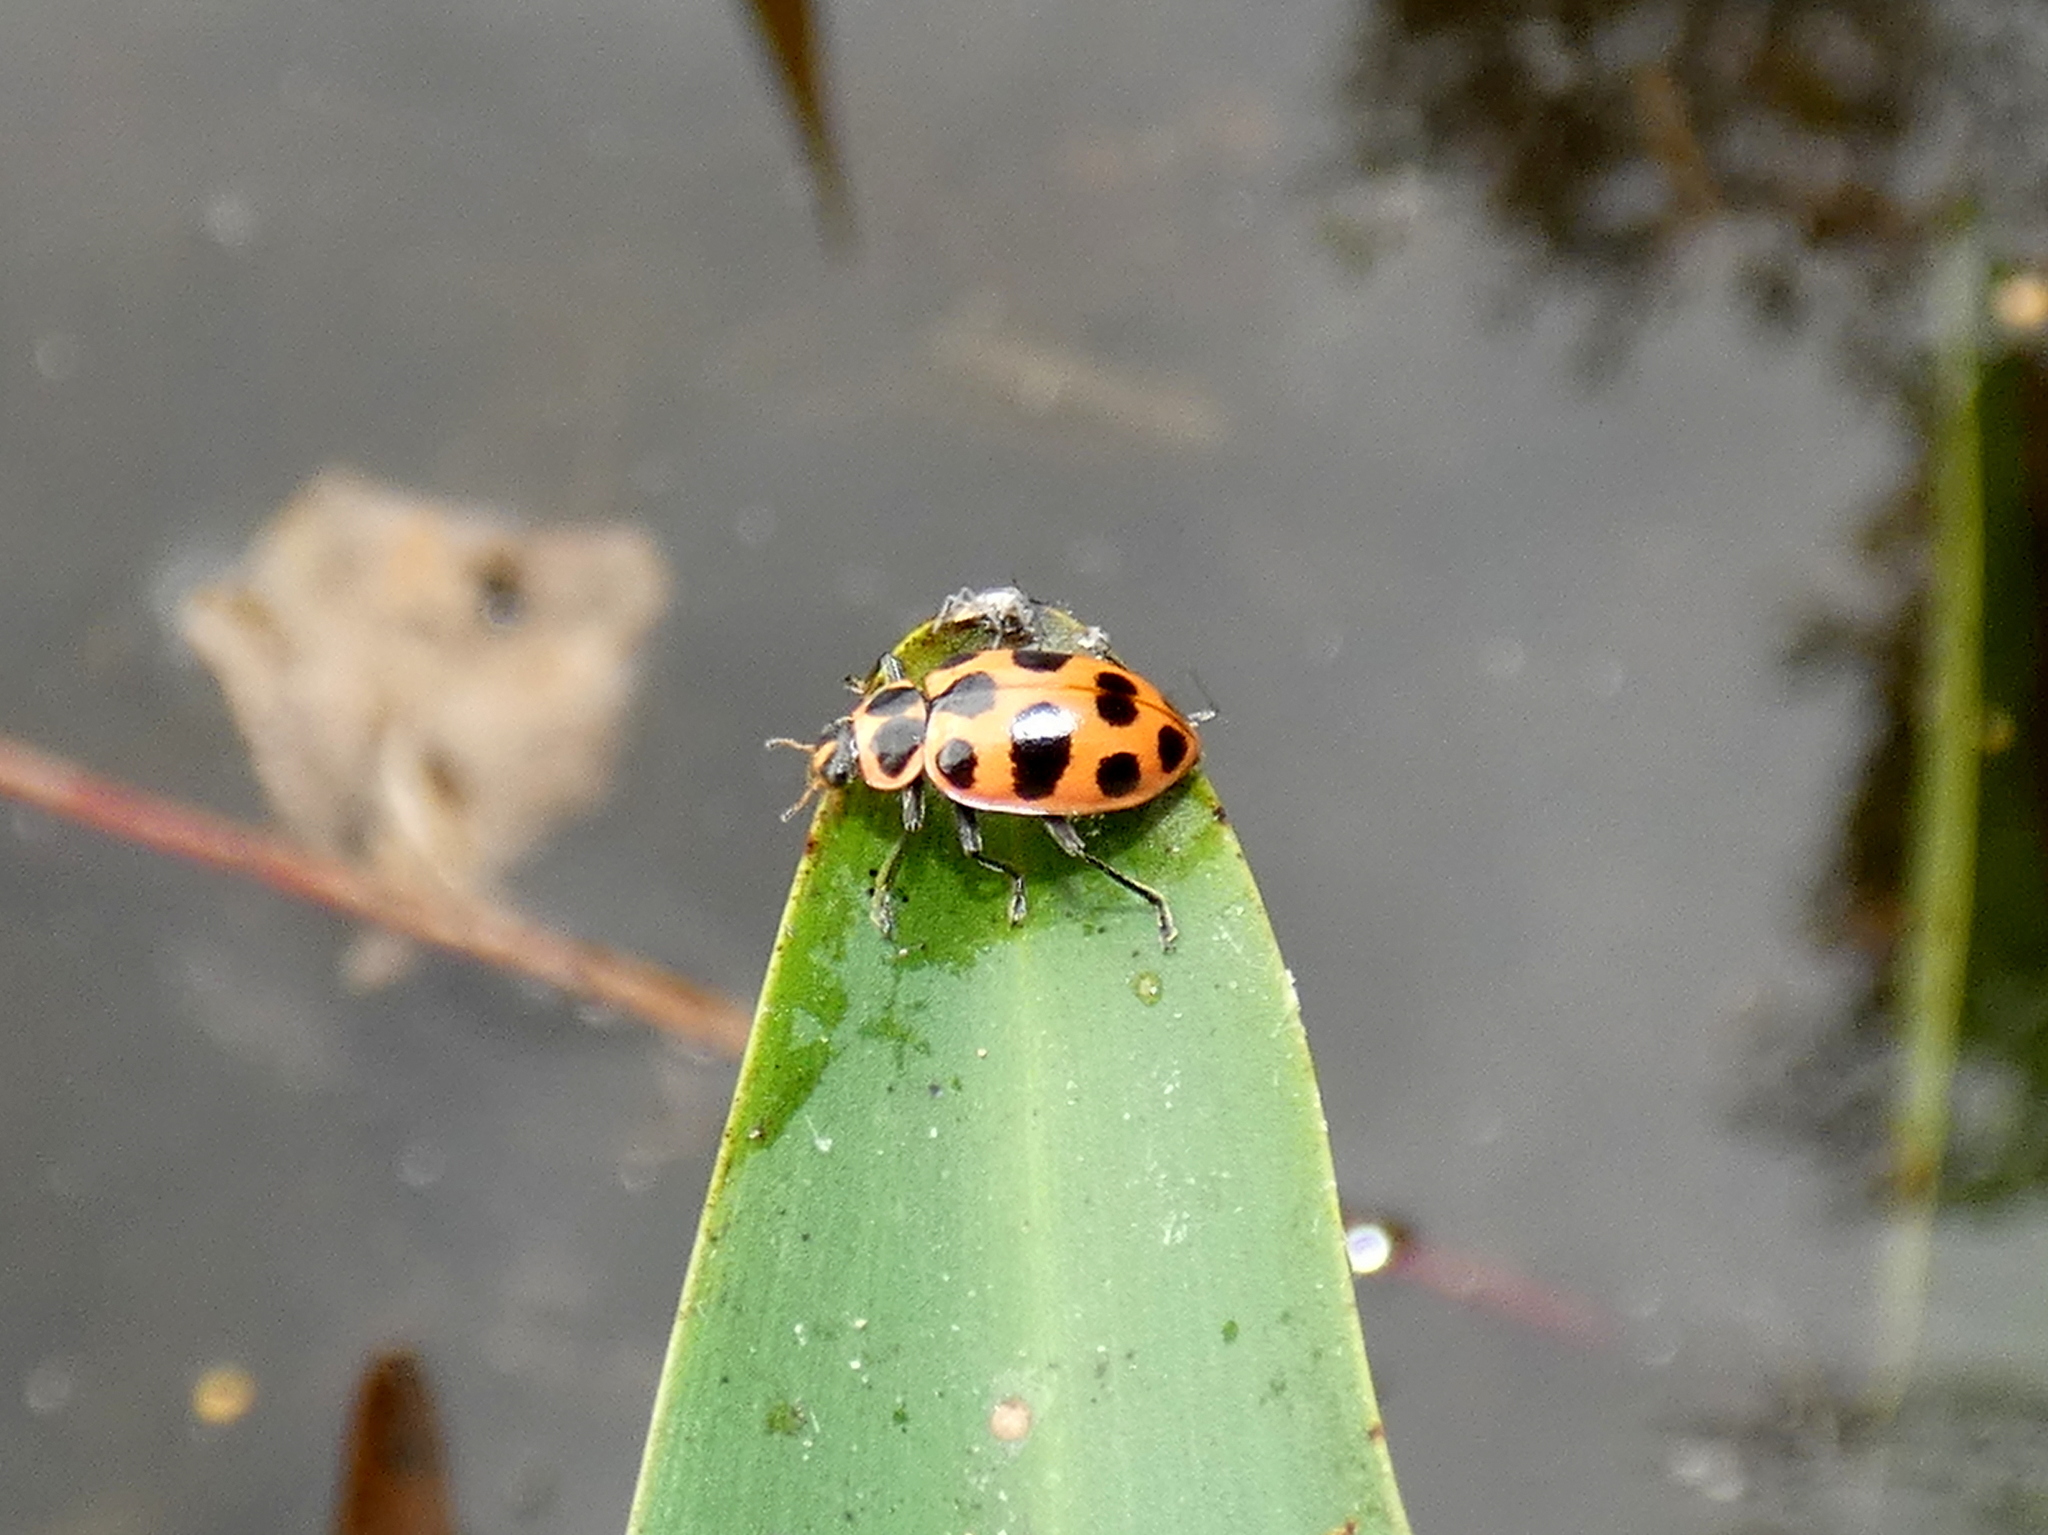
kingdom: Animalia
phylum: Arthropoda
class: Insecta
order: Coleoptera
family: Coccinellidae
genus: Coleomegilla
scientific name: Coleomegilla maculata
